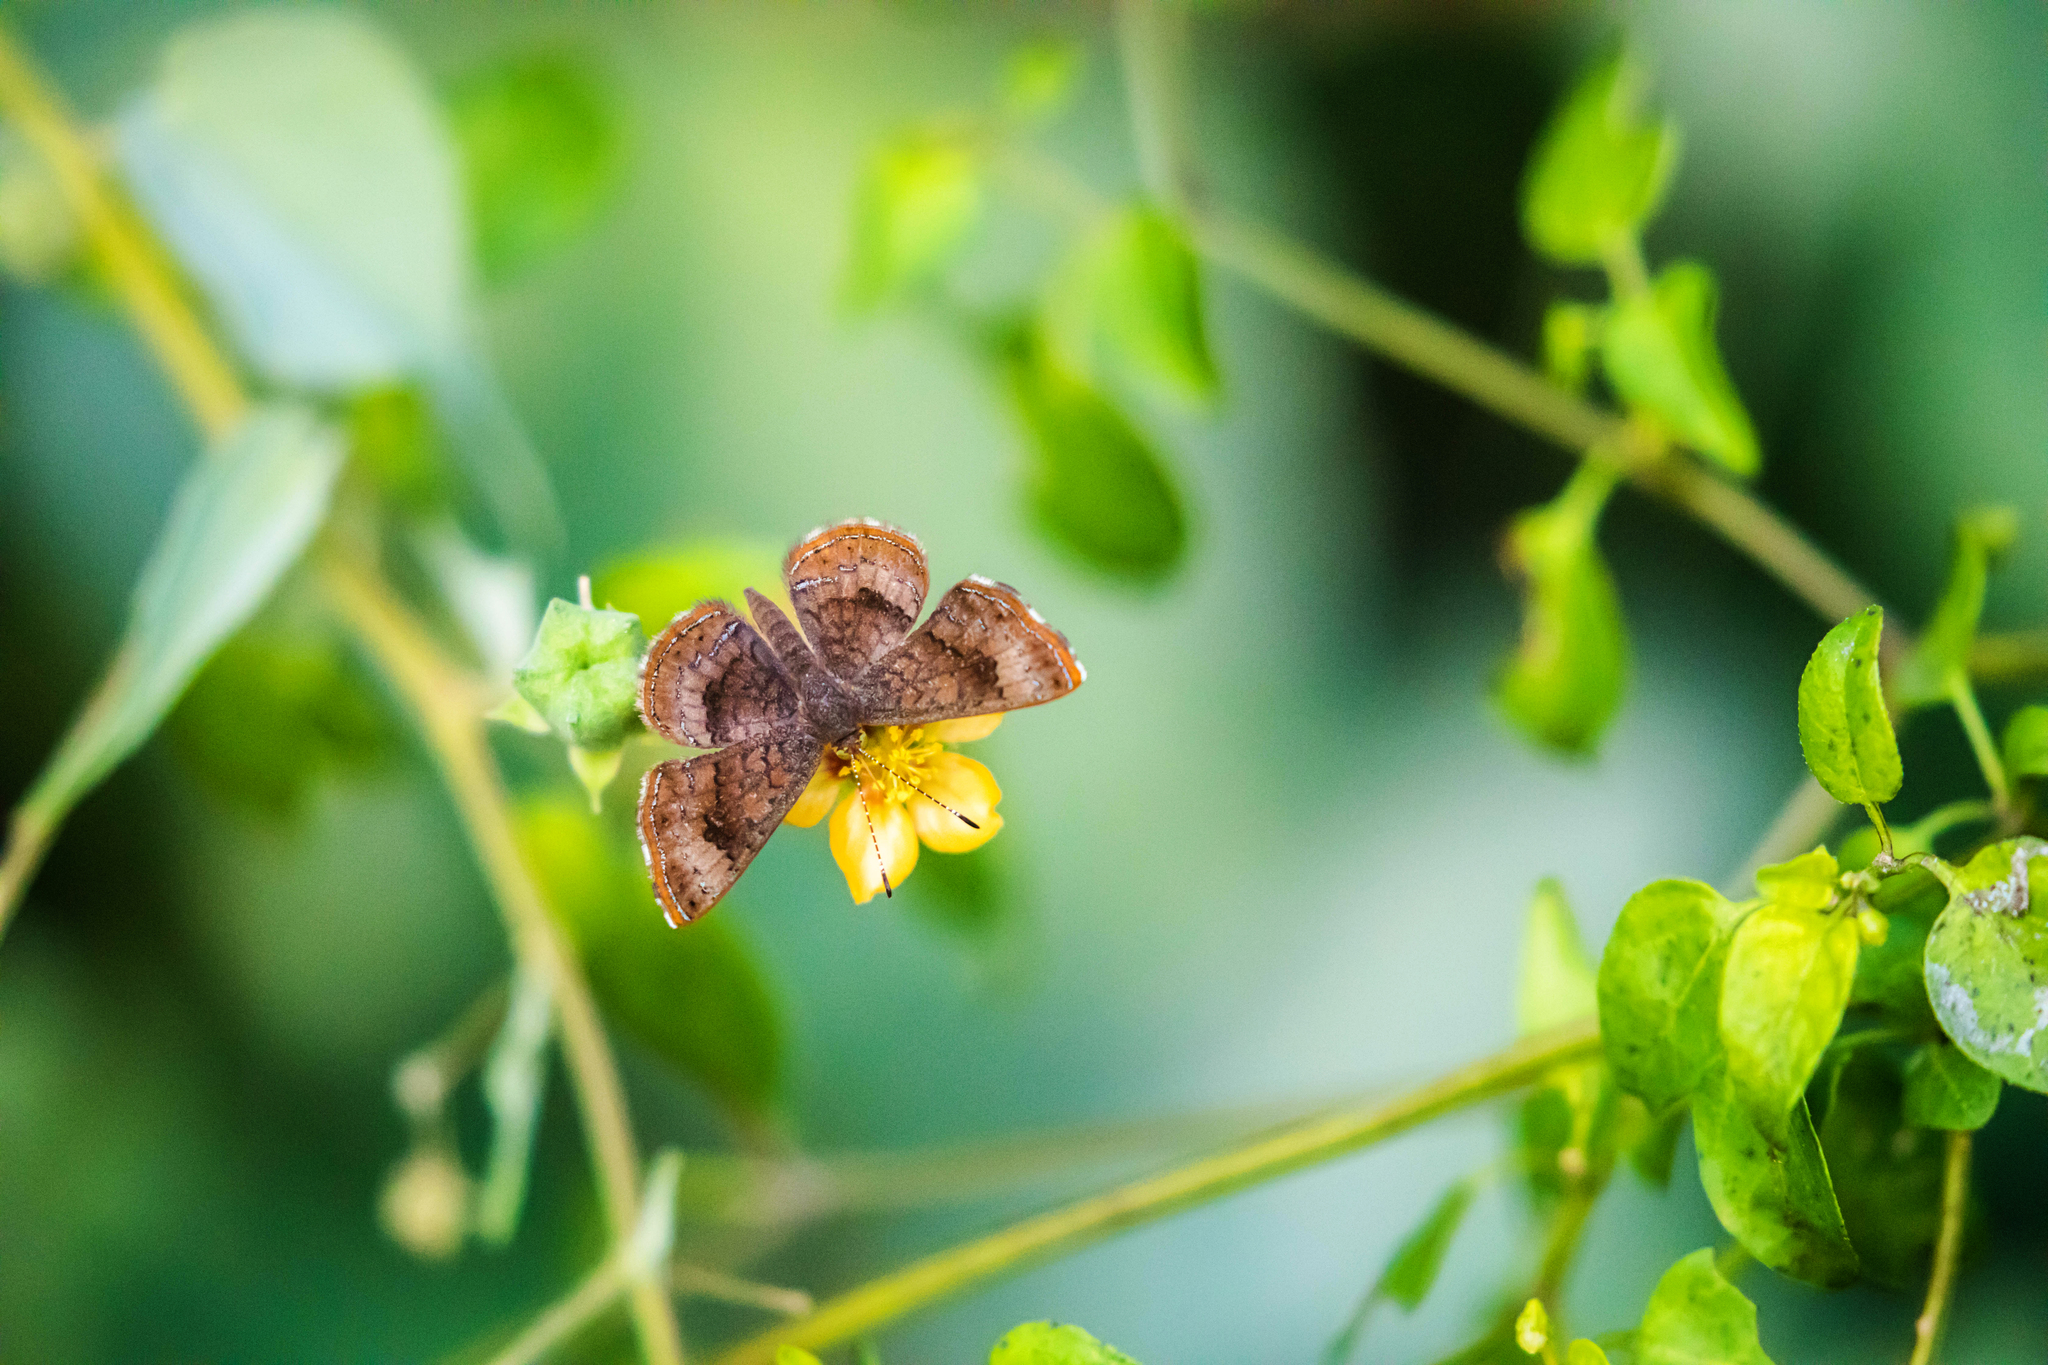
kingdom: Animalia
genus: Calephelis
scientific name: Calephelis nemesis
